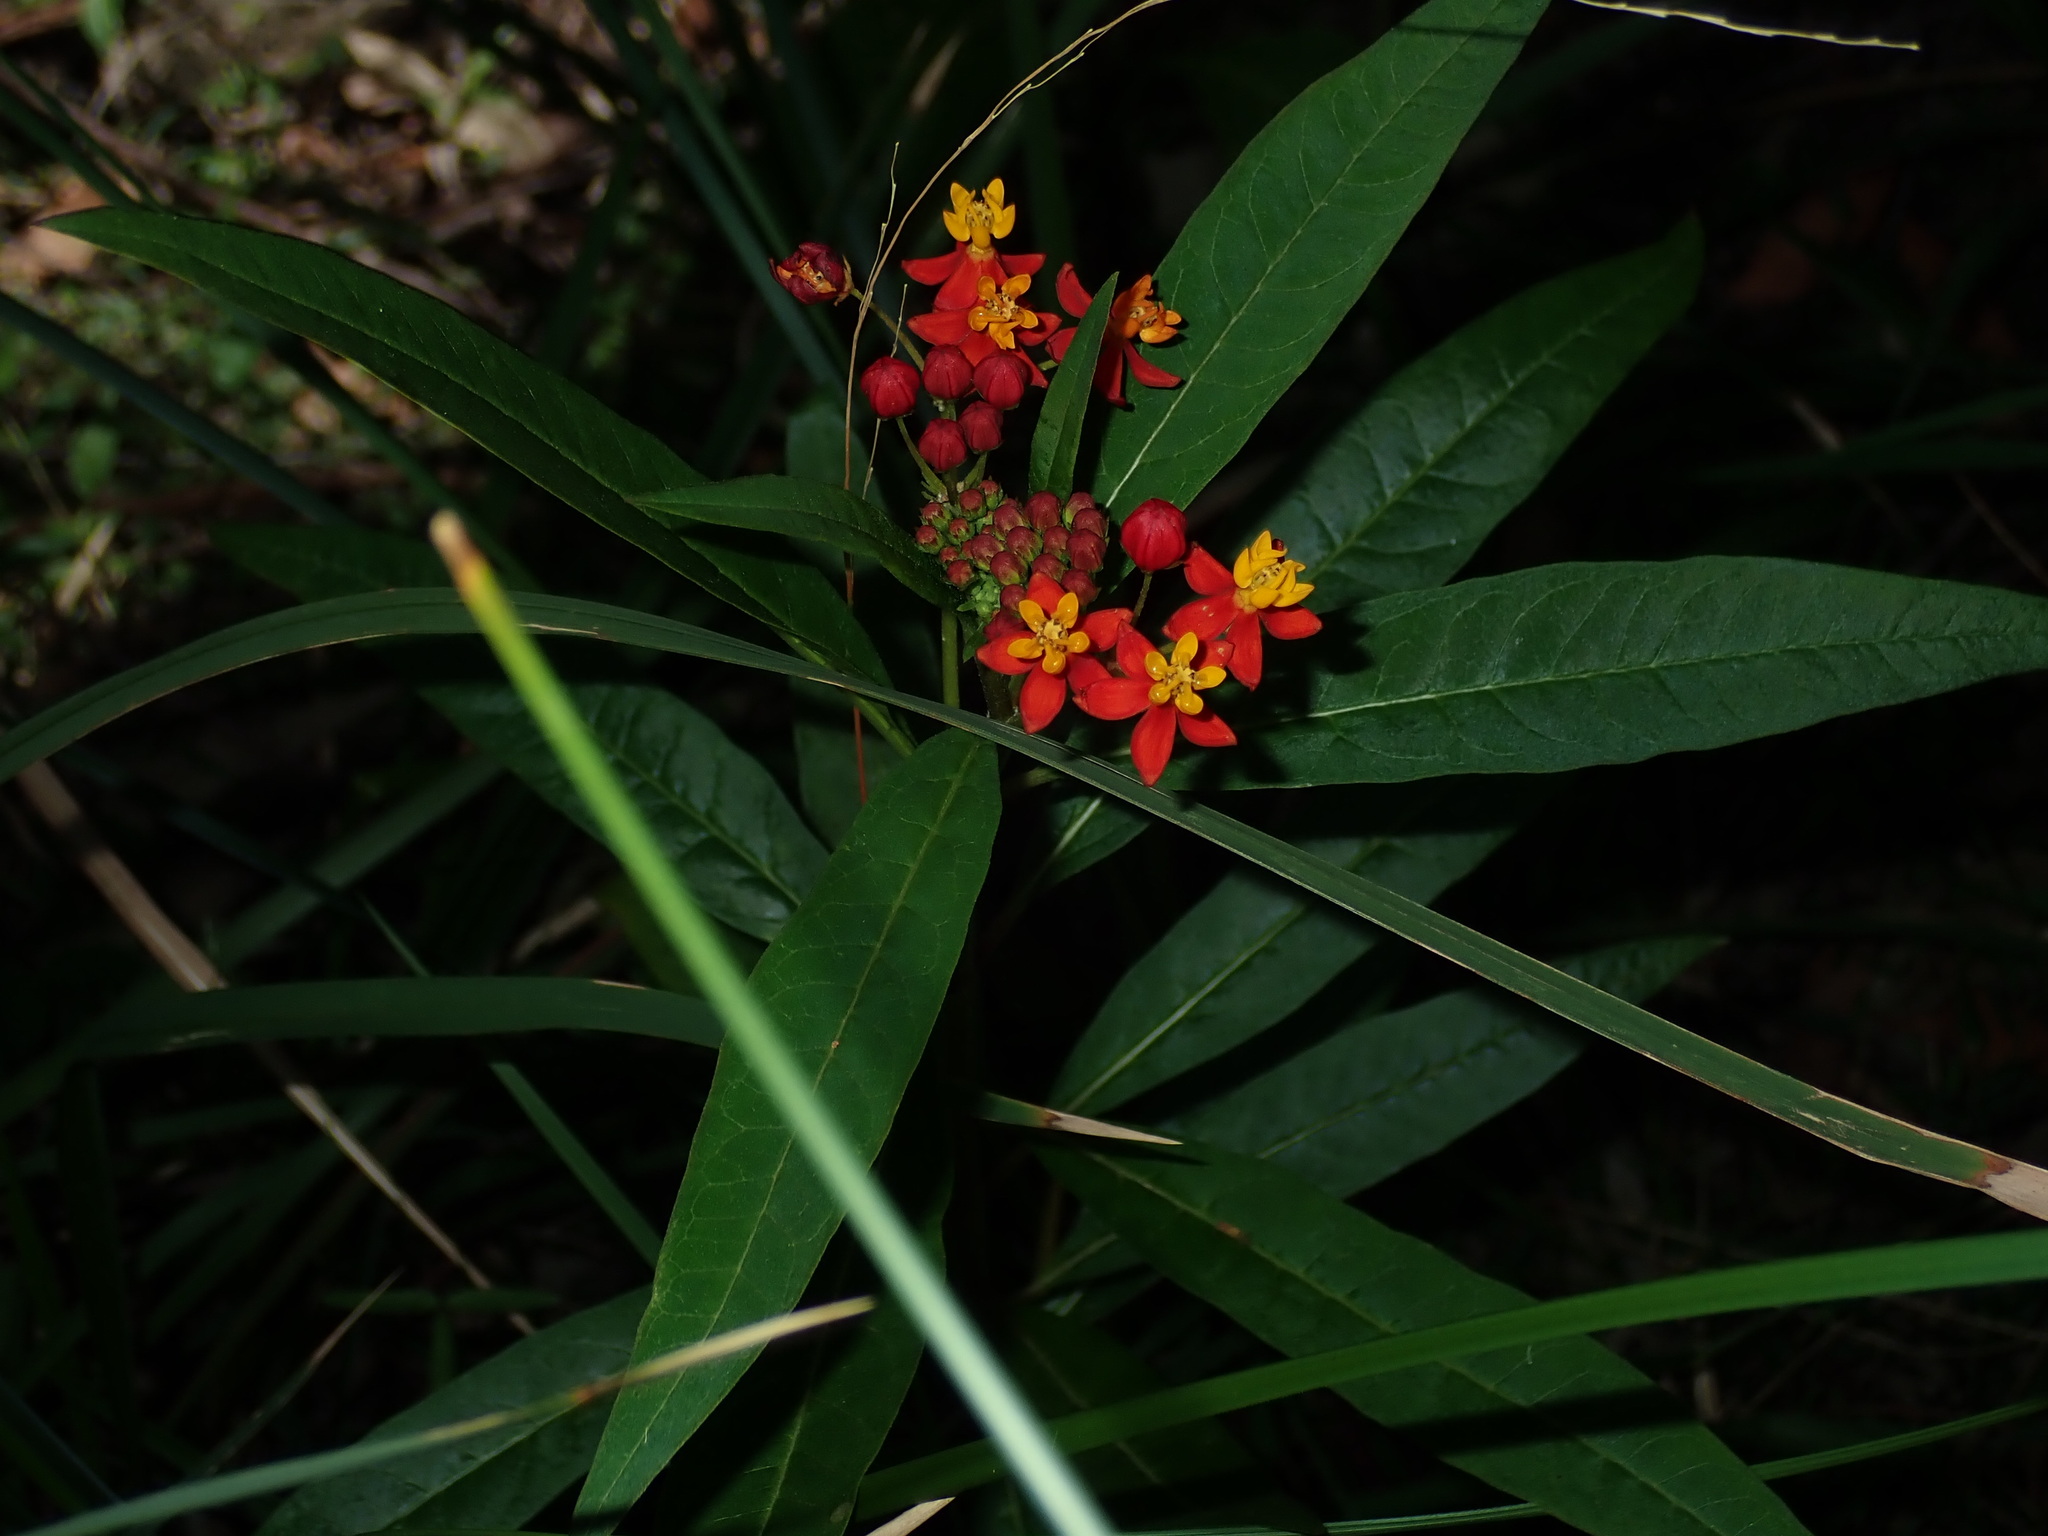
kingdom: Plantae
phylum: Tracheophyta
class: Magnoliopsida
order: Gentianales
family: Apocynaceae
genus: Asclepias
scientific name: Asclepias curassavica
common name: Bloodflower
